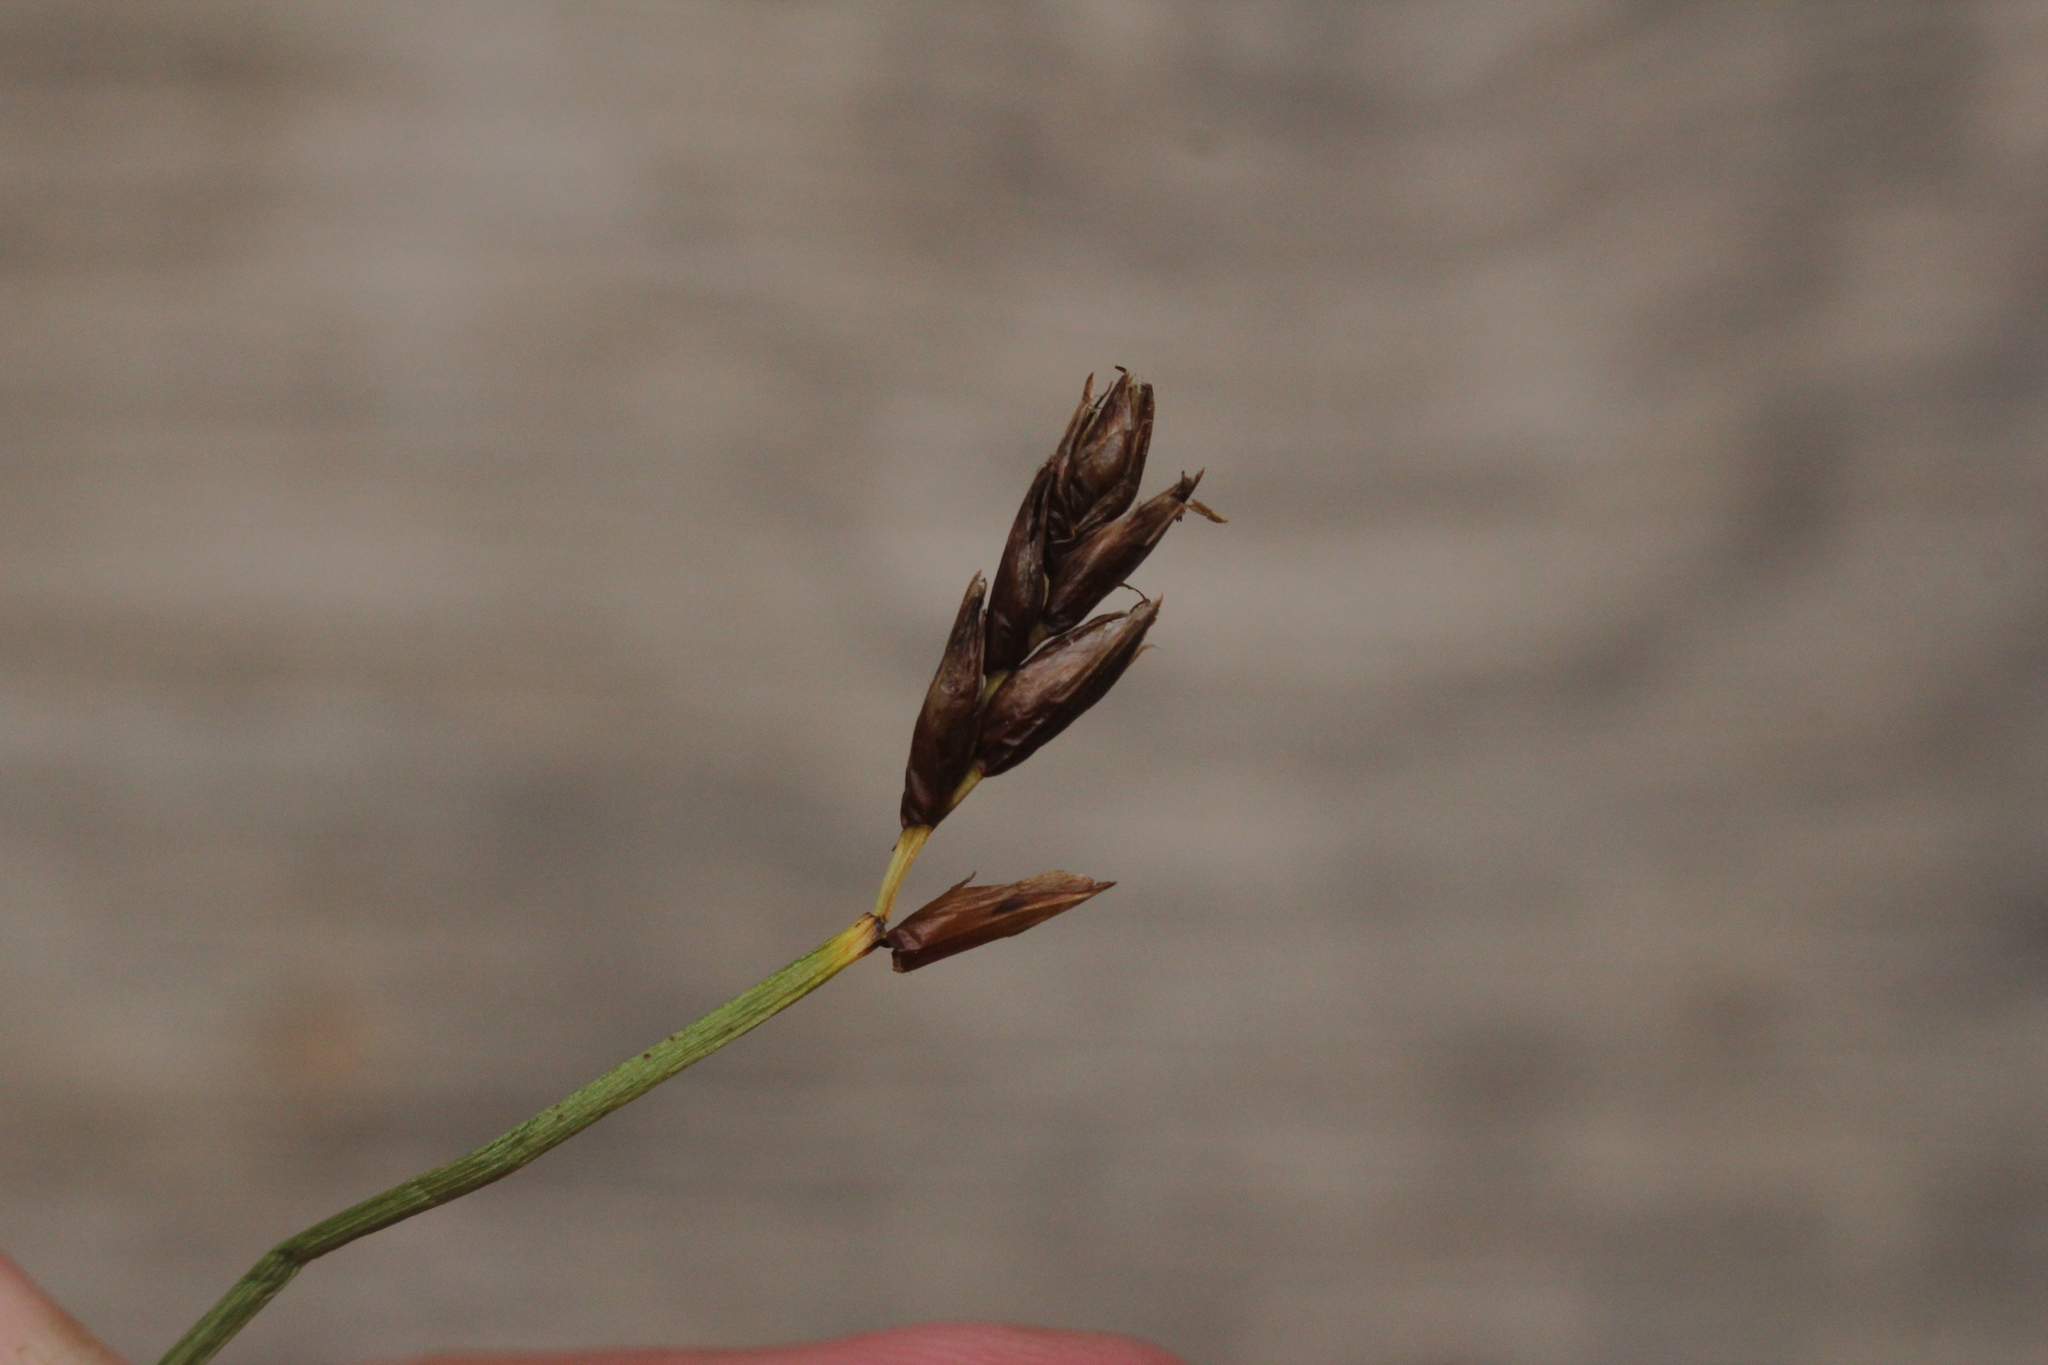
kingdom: Plantae
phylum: Tracheophyta
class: Liliopsida
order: Poales
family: Cyperaceae
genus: Blysmus
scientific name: Blysmus rufus
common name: Saltmarsh flat-sedge
